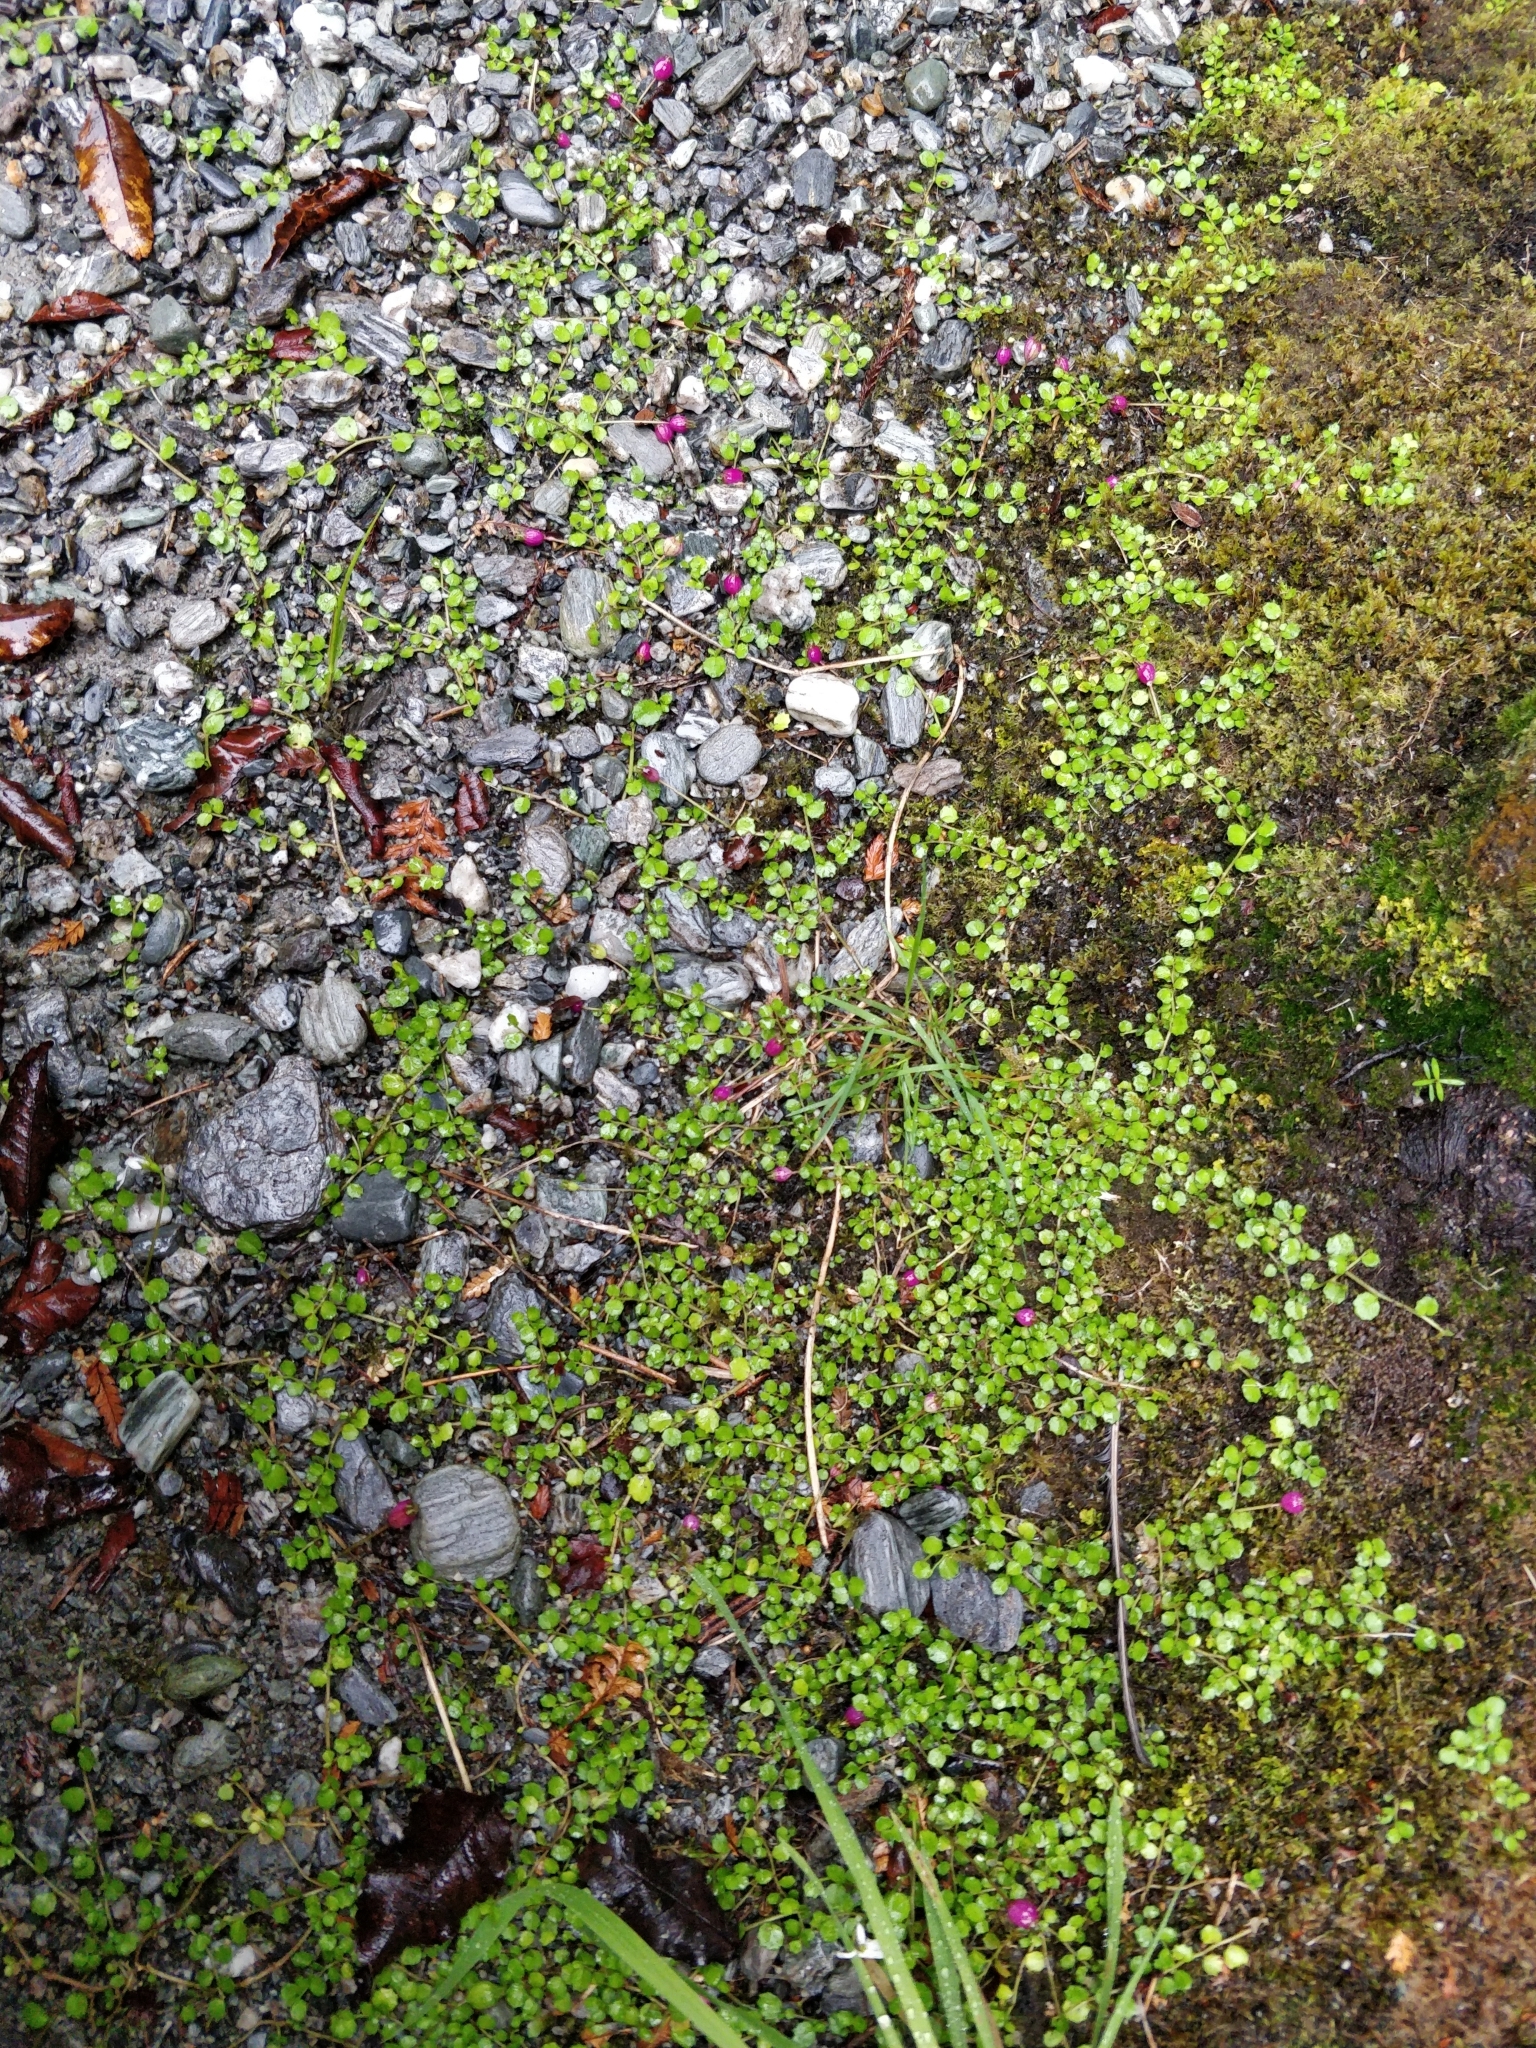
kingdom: Plantae
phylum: Tracheophyta
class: Magnoliopsida
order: Asterales
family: Campanulaceae
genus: Lobelia
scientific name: Lobelia angulata
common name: Lawn lobelia
